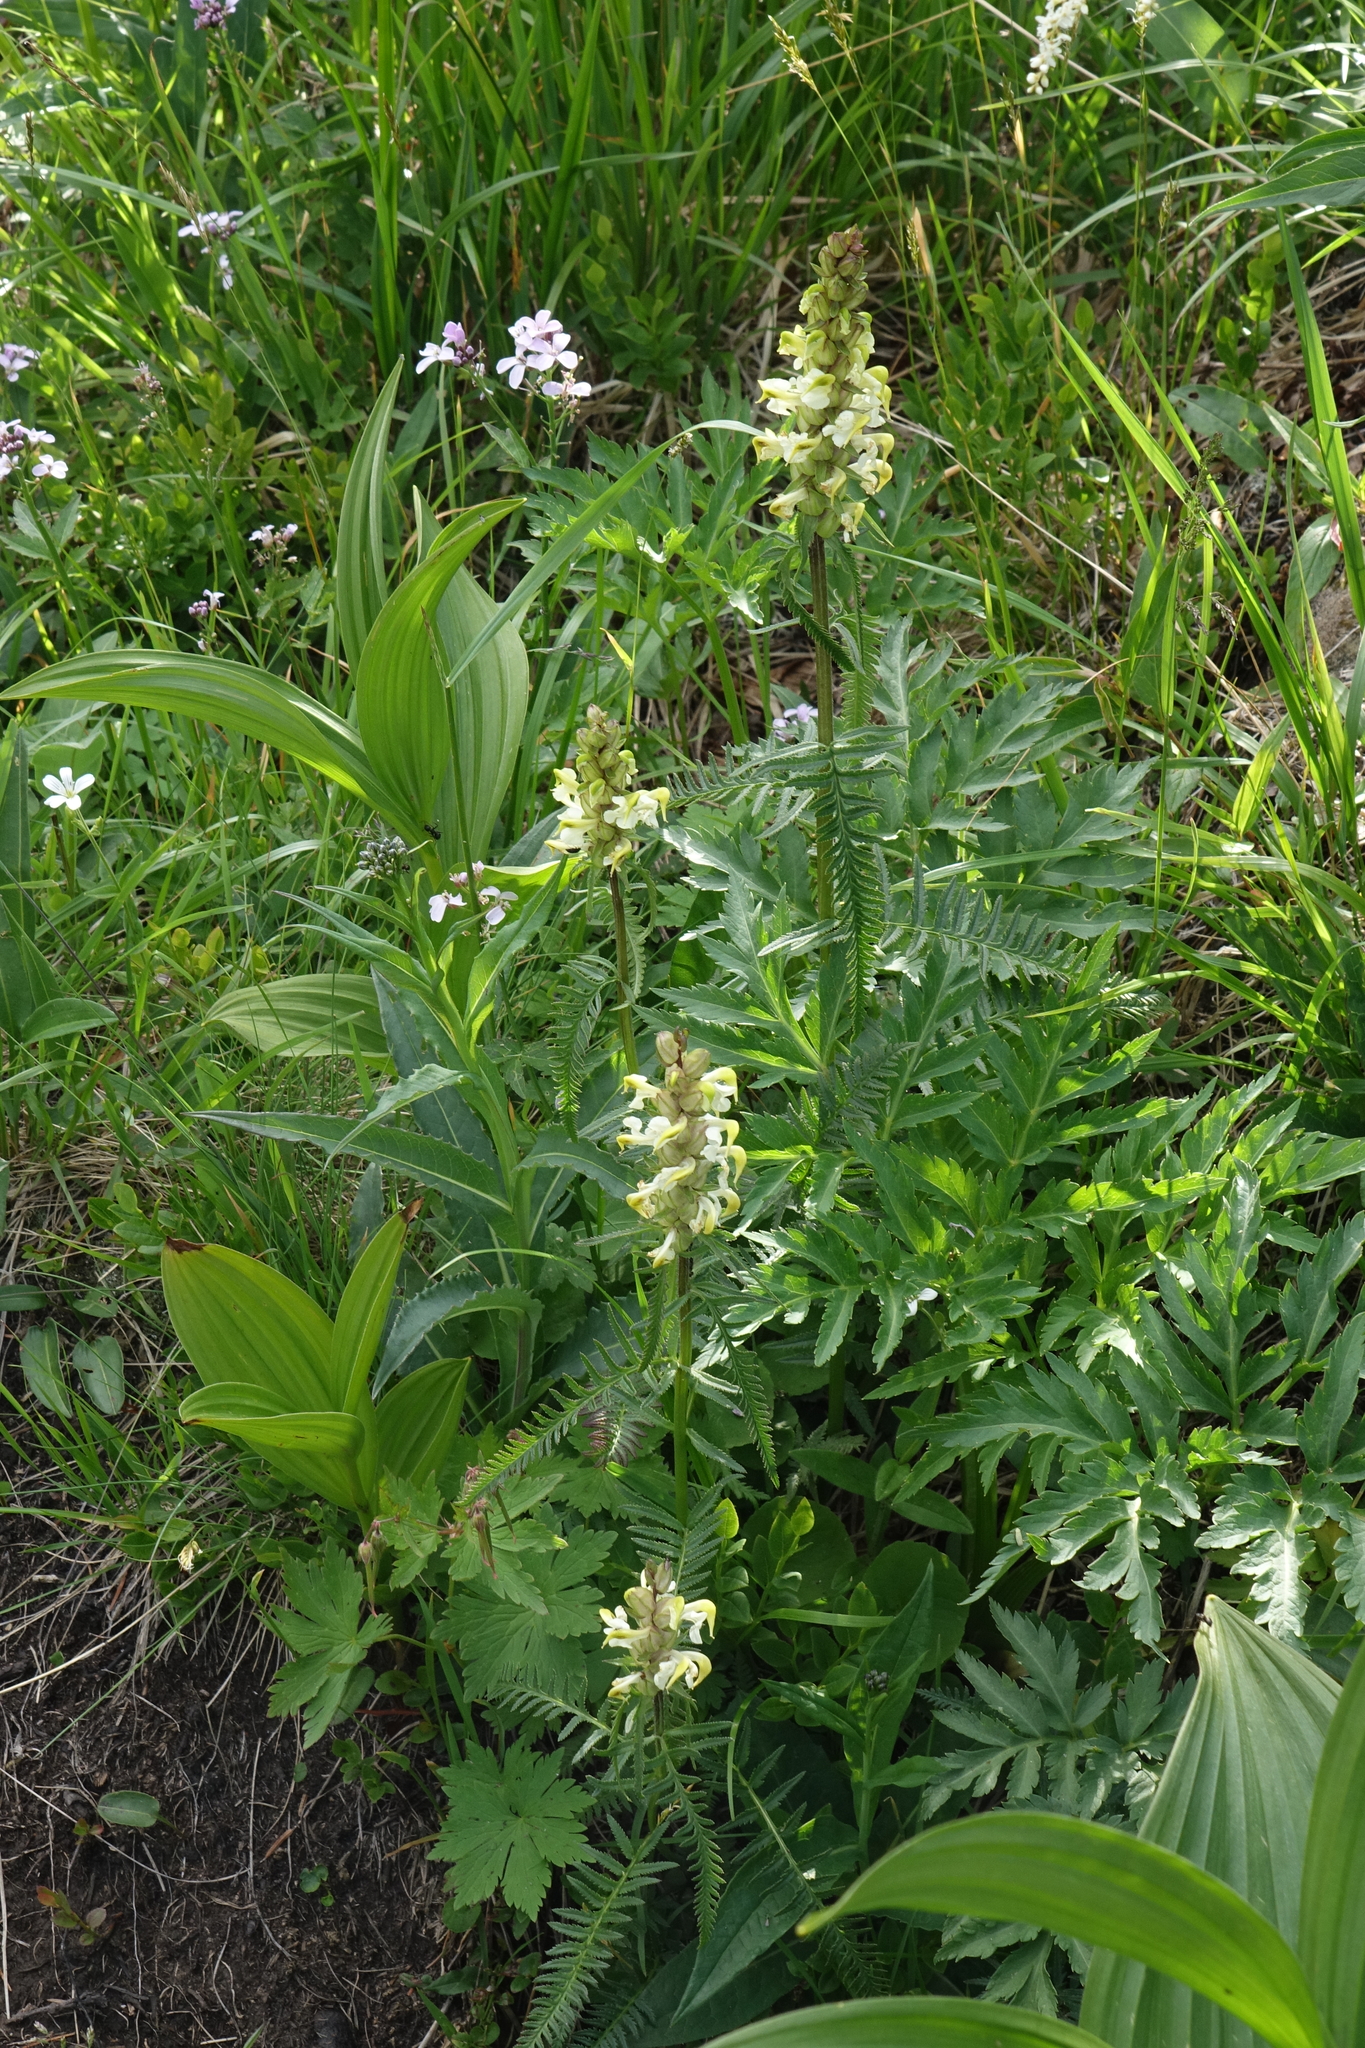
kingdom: Plantae
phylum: Tracheophyta
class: Magnoliopsida
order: Lamiales
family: Orobanchaceae
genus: Pedicularis
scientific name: Pedicularis compacta
